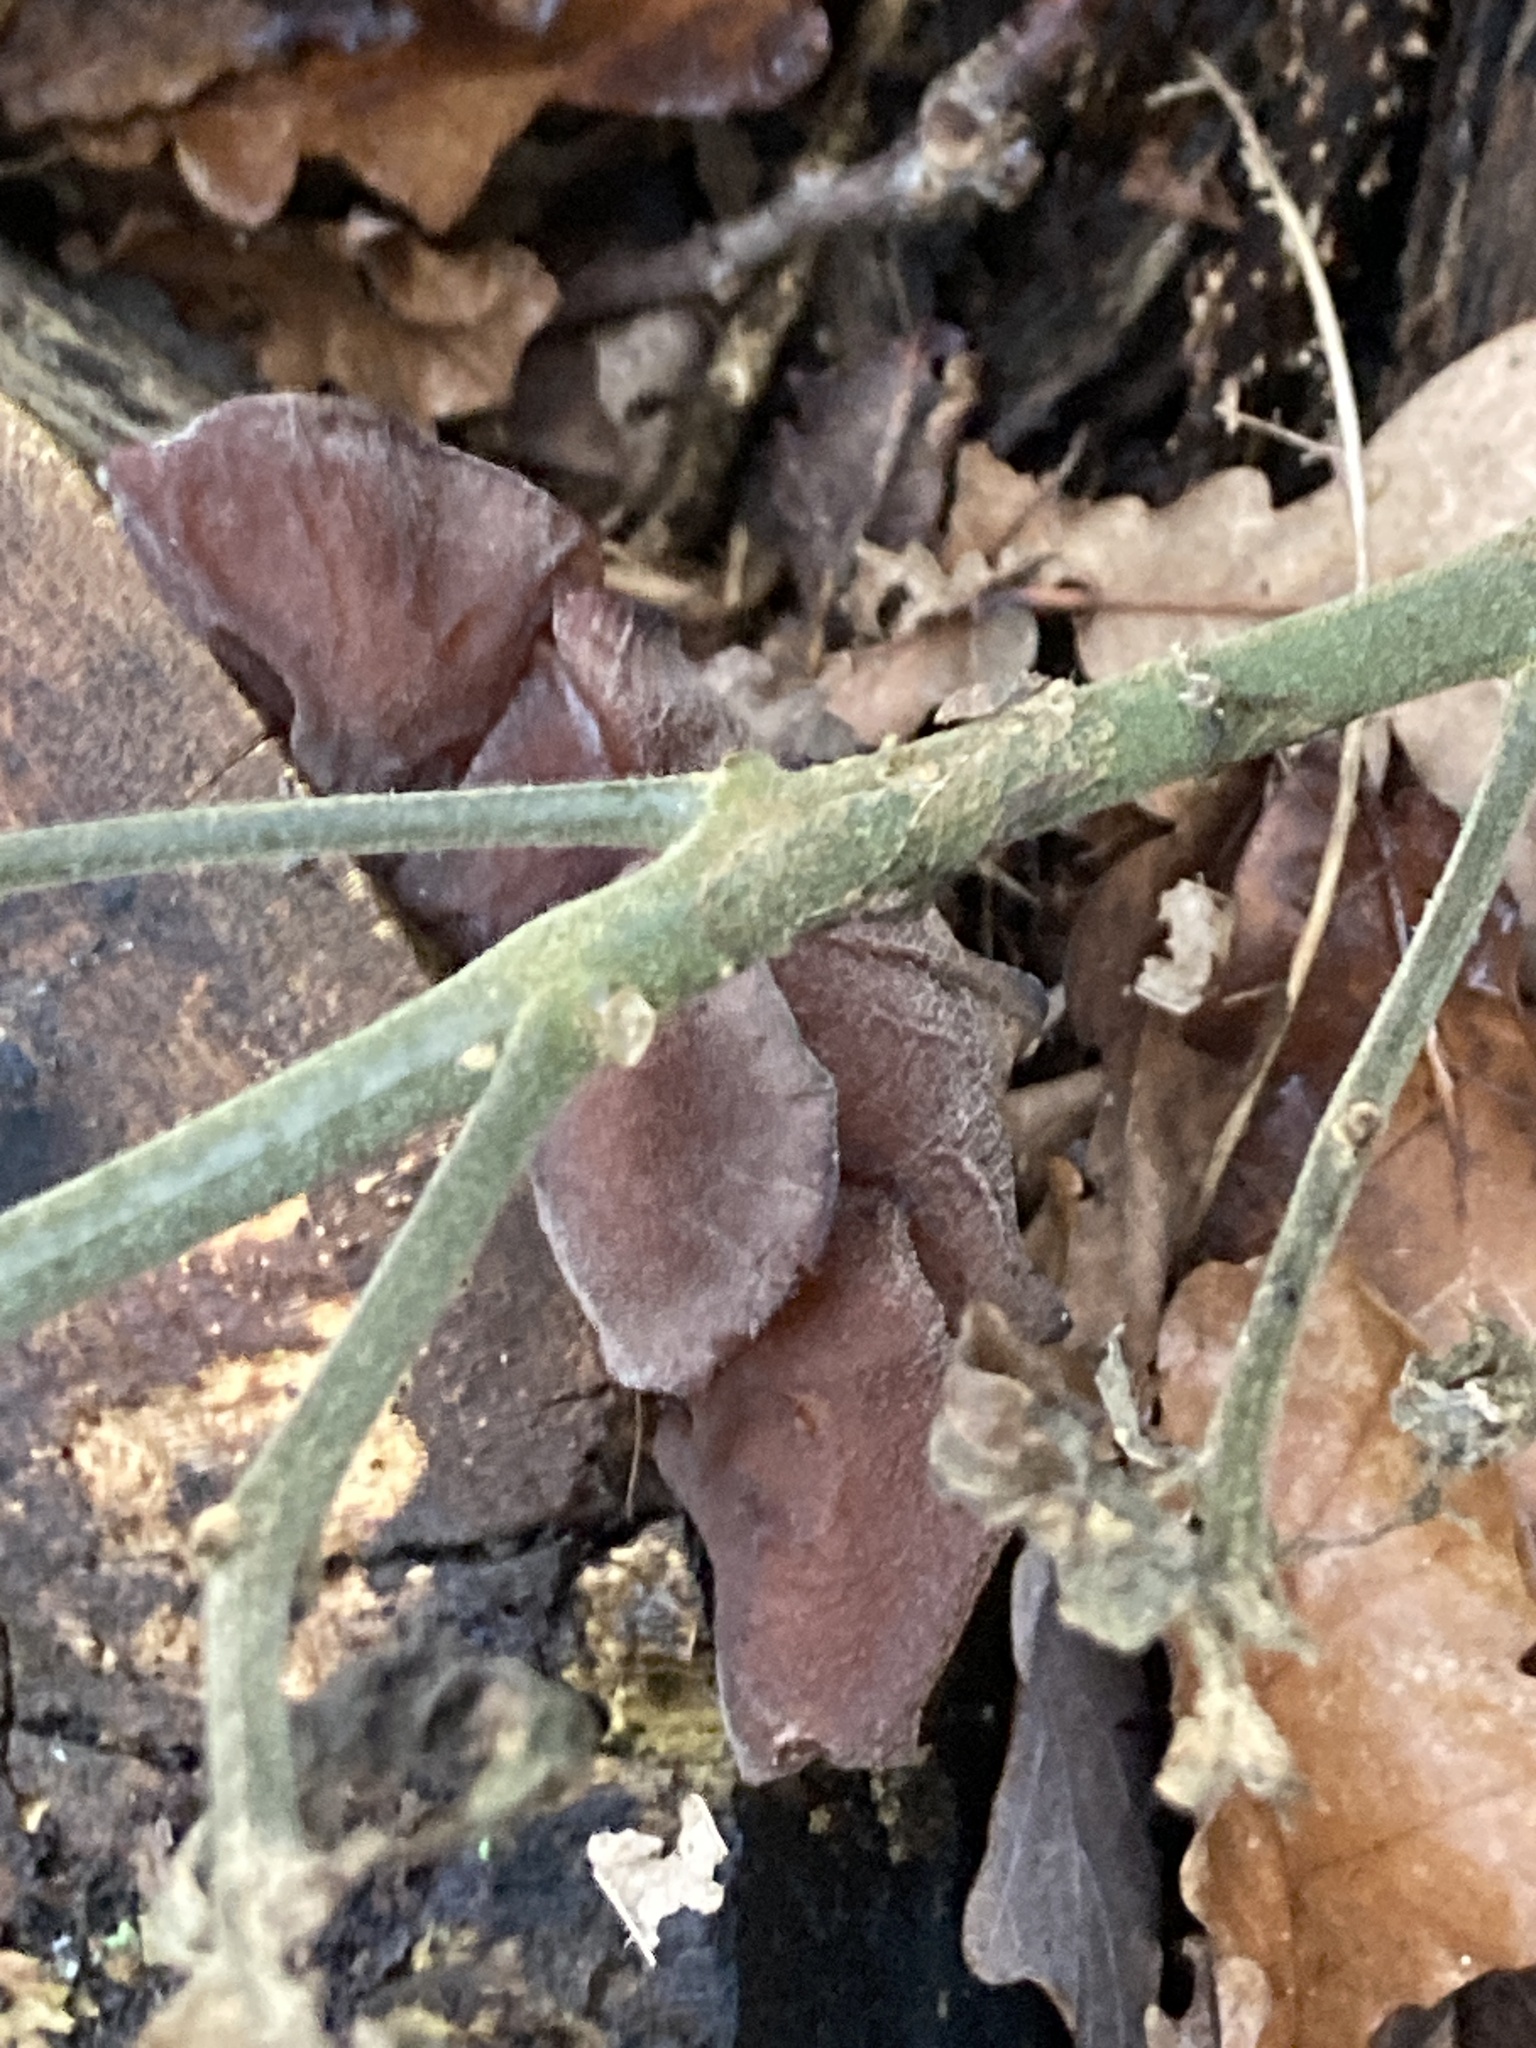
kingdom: Fungi
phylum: Basidiomycota
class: Agaricomycetes
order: Auriculariales
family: Auriculariaceae
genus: Auricularia
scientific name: Auricularia auricula-judae
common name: Jelly ear
